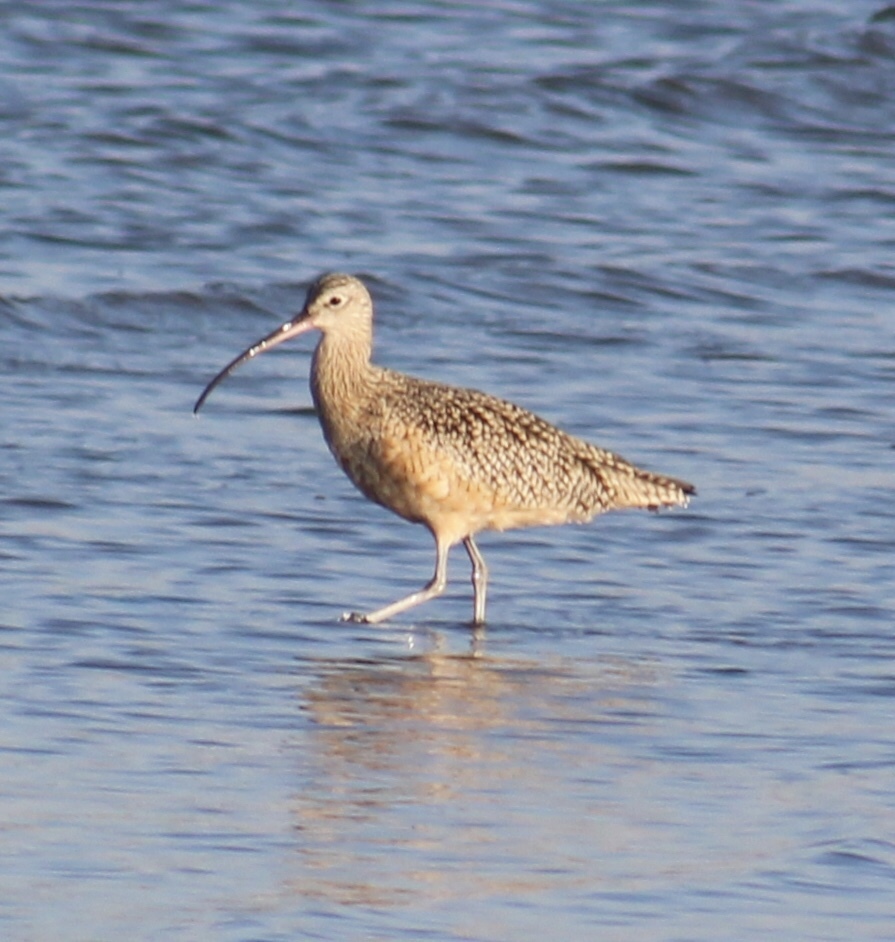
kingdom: Animalia
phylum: Chordata
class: Aves
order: Charadriiformes
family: Scolopacidae
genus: Numenius
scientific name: Numenius americanus
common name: Long-billed curlew
